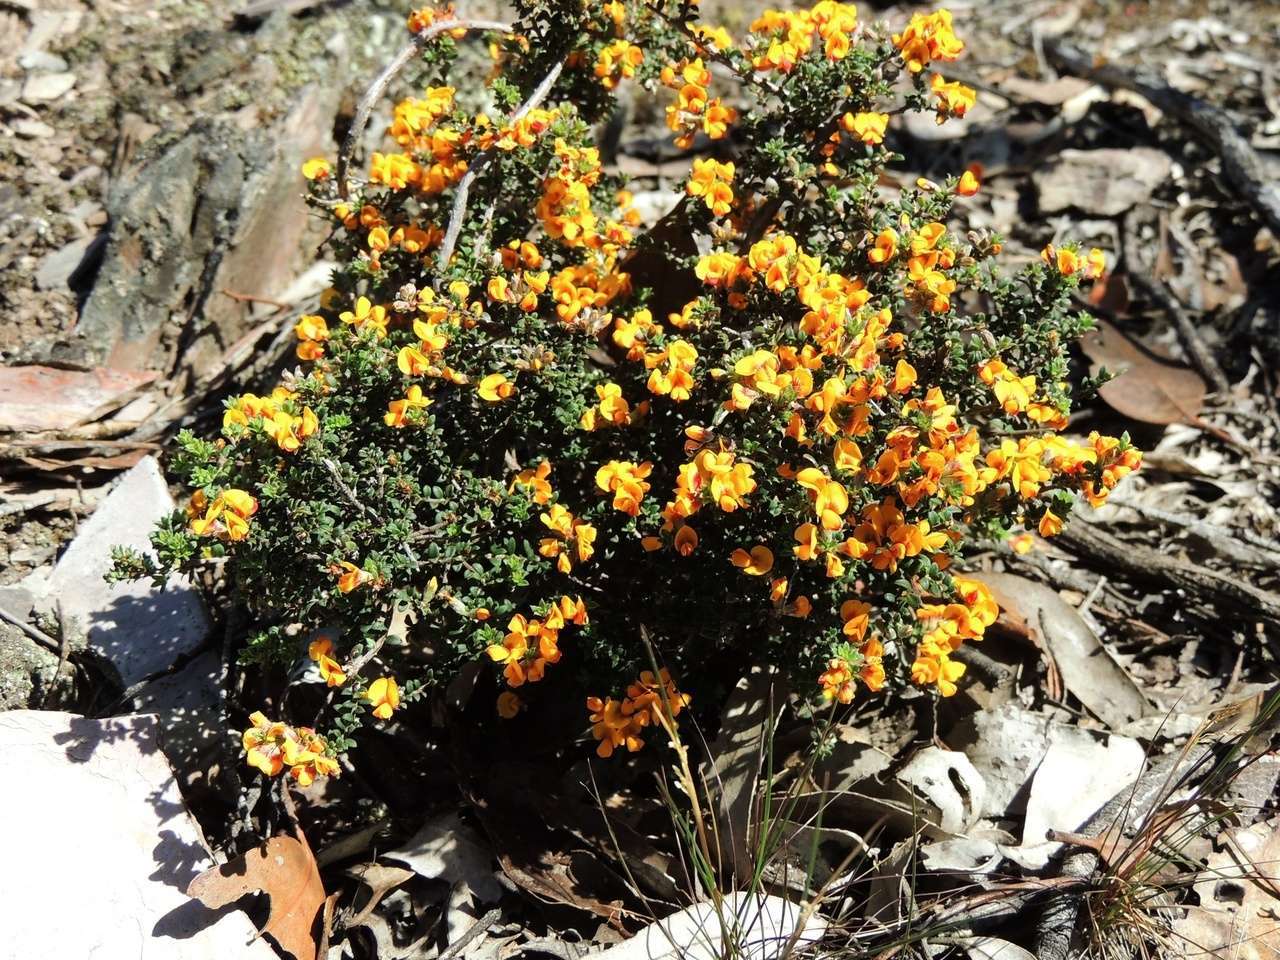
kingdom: Plantae
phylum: Tracheophyta
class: Magnoliopsida
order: Fabales
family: Fabaceae
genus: Pultenaea
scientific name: Pultenaea gunnii
